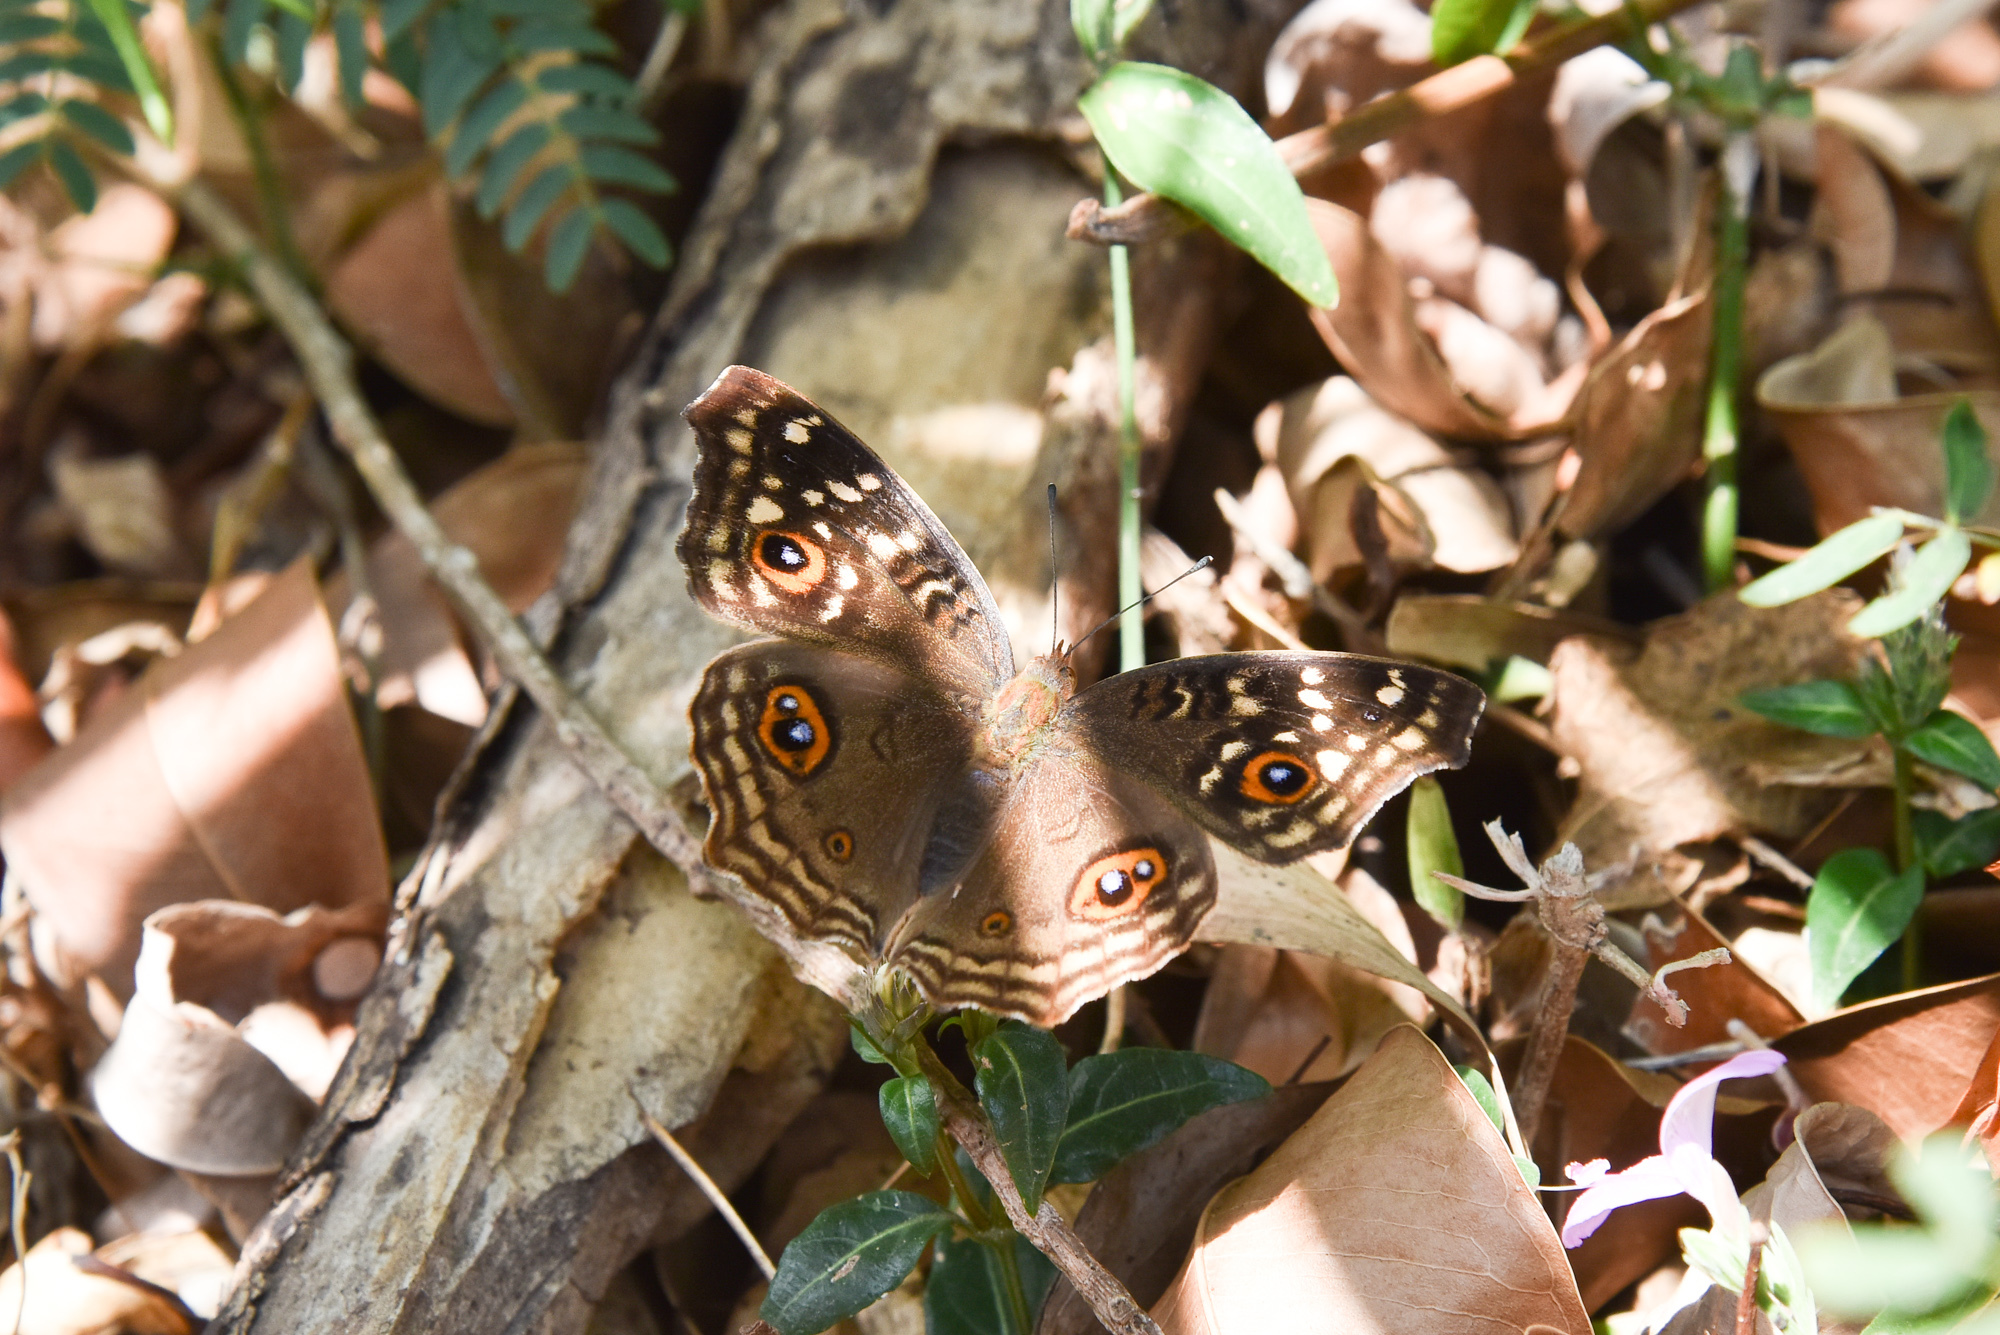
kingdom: Animalia
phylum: Arthropoda
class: Insecta
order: Lepidoptera
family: Nymphalidae
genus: Junonia
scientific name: Junonia lemonias
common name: Lemon pansy
